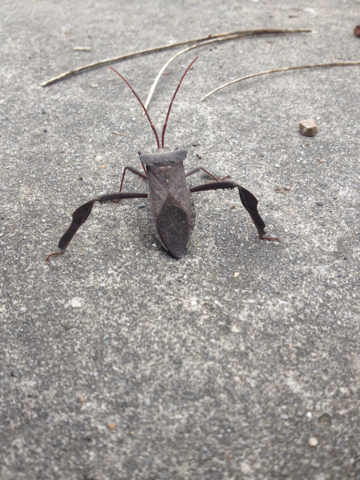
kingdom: Animalia
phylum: Arthropoda
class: Insecta
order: Hemiptera
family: Coreidae
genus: Acanthocephala
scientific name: Acanthocephala declivis
